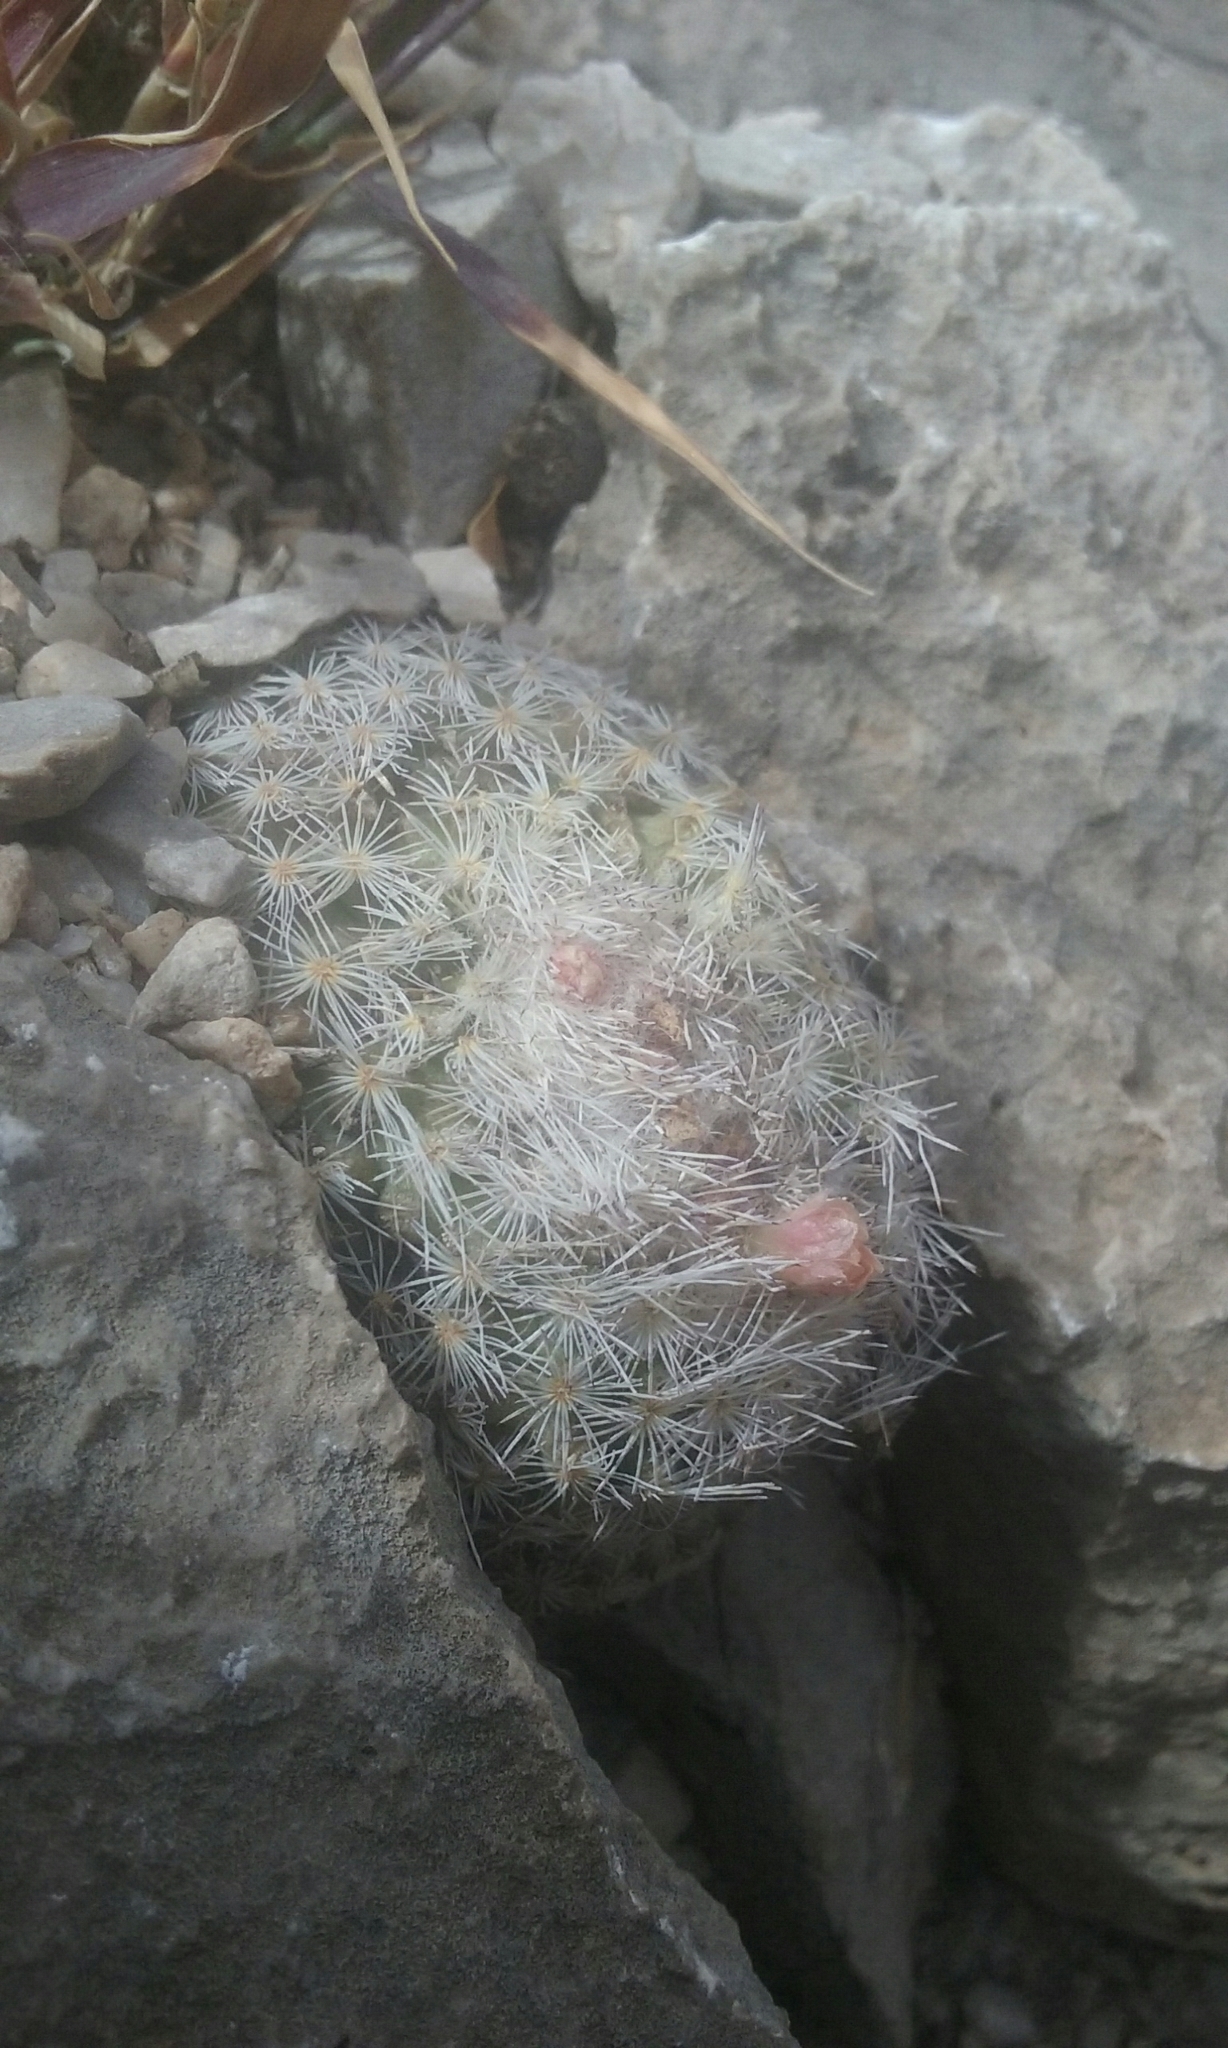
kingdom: Plantae
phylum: Tracheophyta
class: Magnoliopsida
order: Caryophyllales
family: Cactaceae
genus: Epithelantha
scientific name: Epithelantha micromeris
